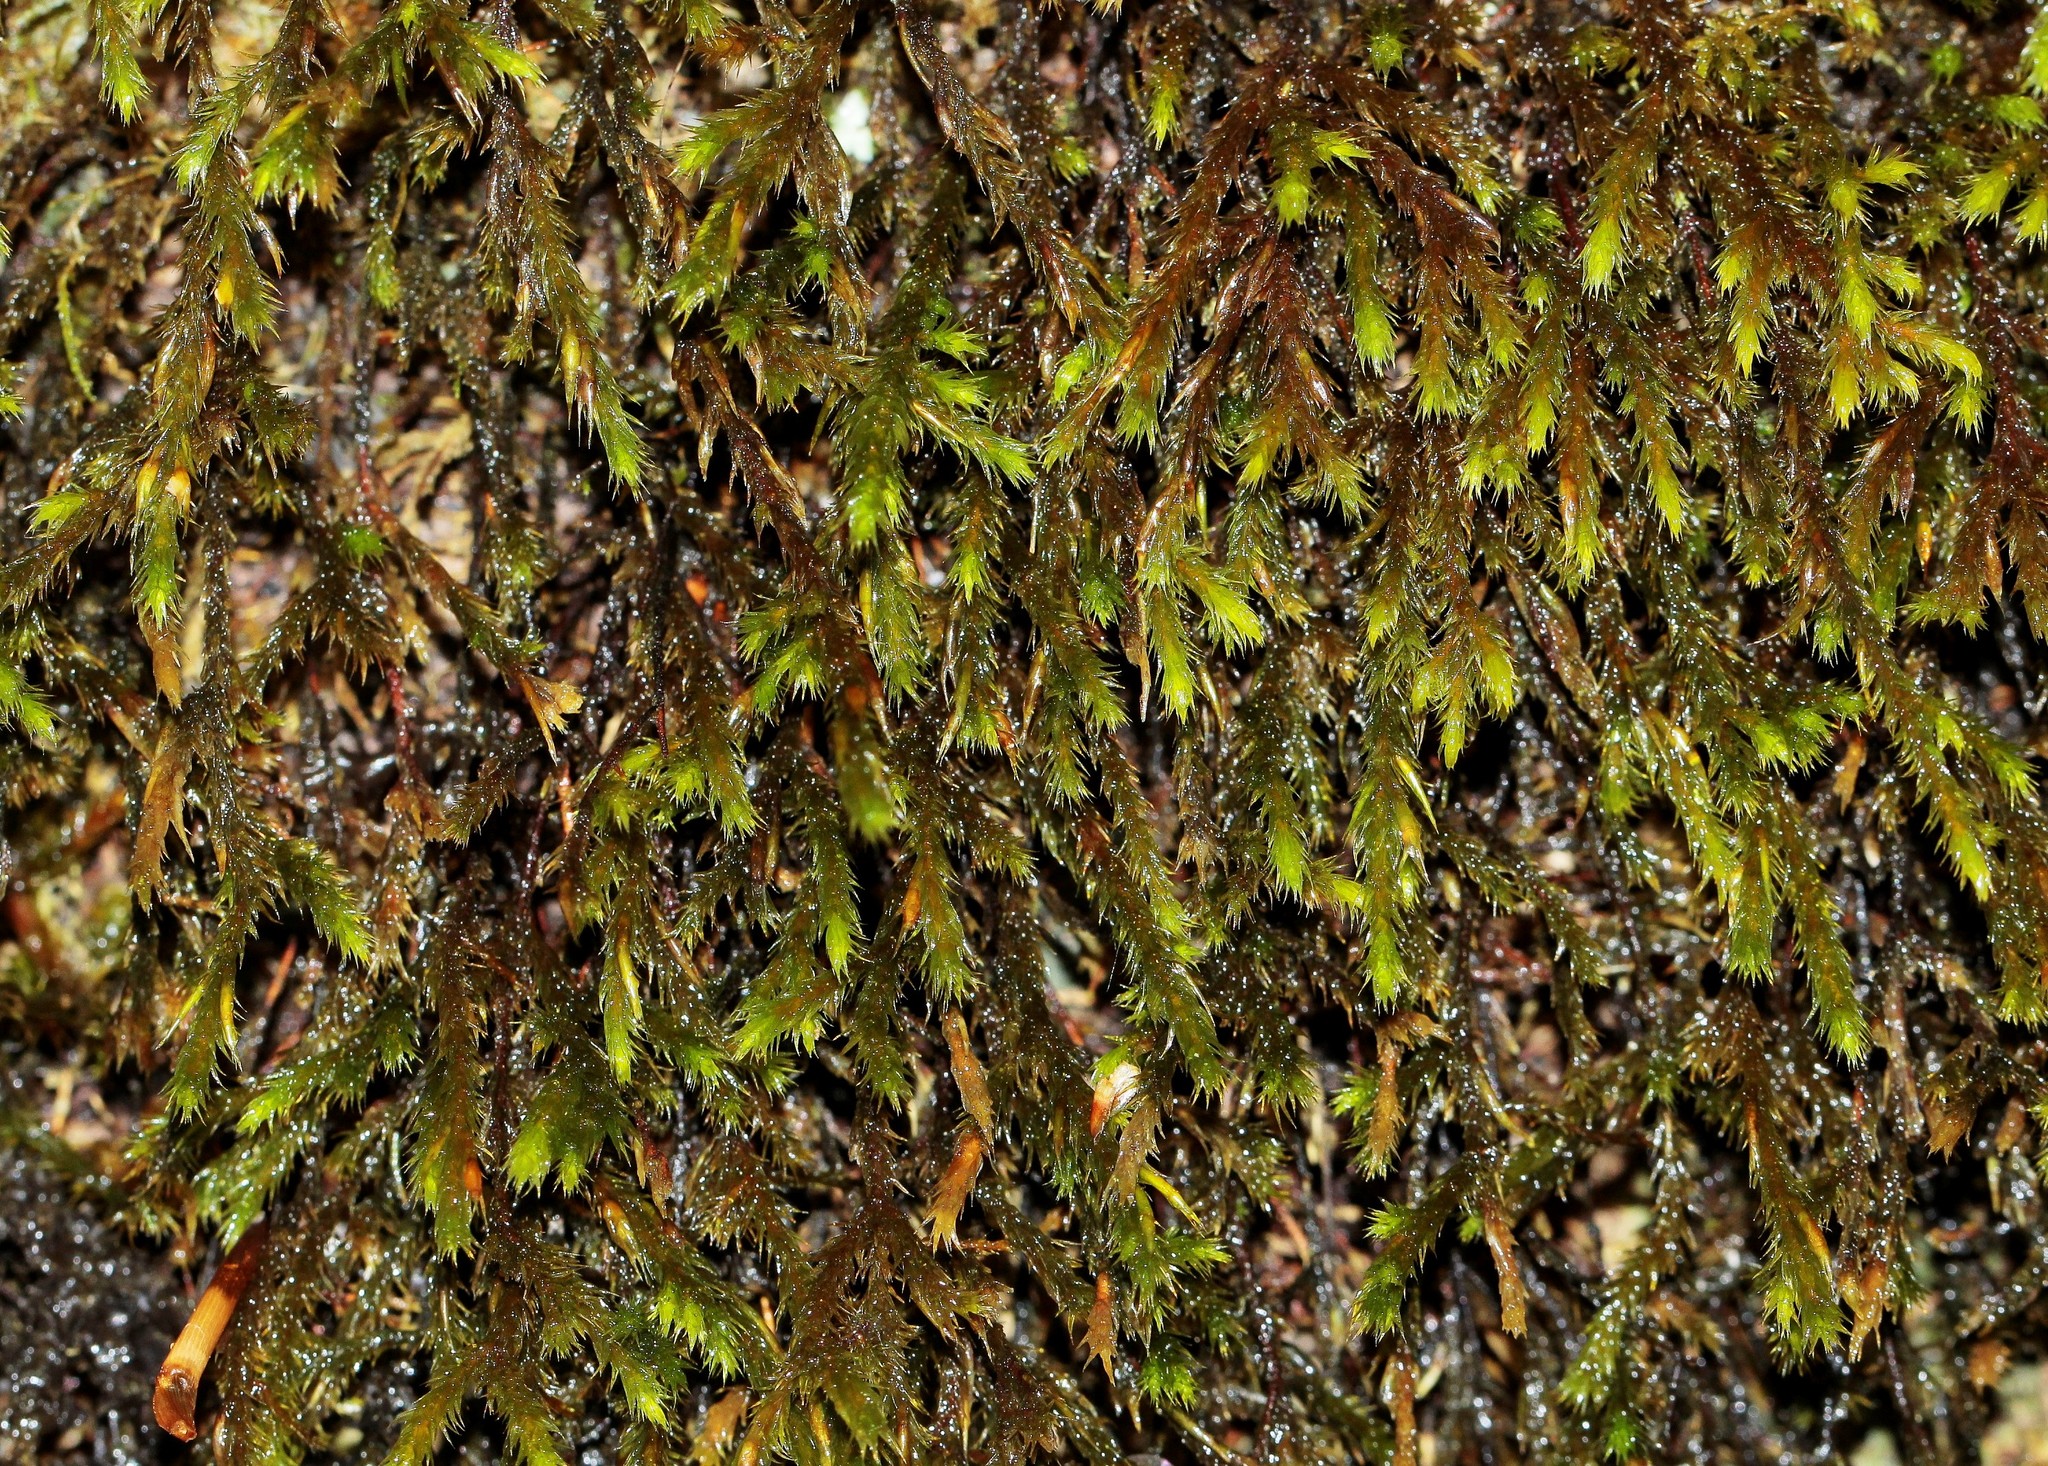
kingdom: Plantae
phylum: Bryophyta
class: Bryopsida
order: Hypnales
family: Cryphaeaceae
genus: Cryphaea
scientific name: Cryphaea heteromalla
